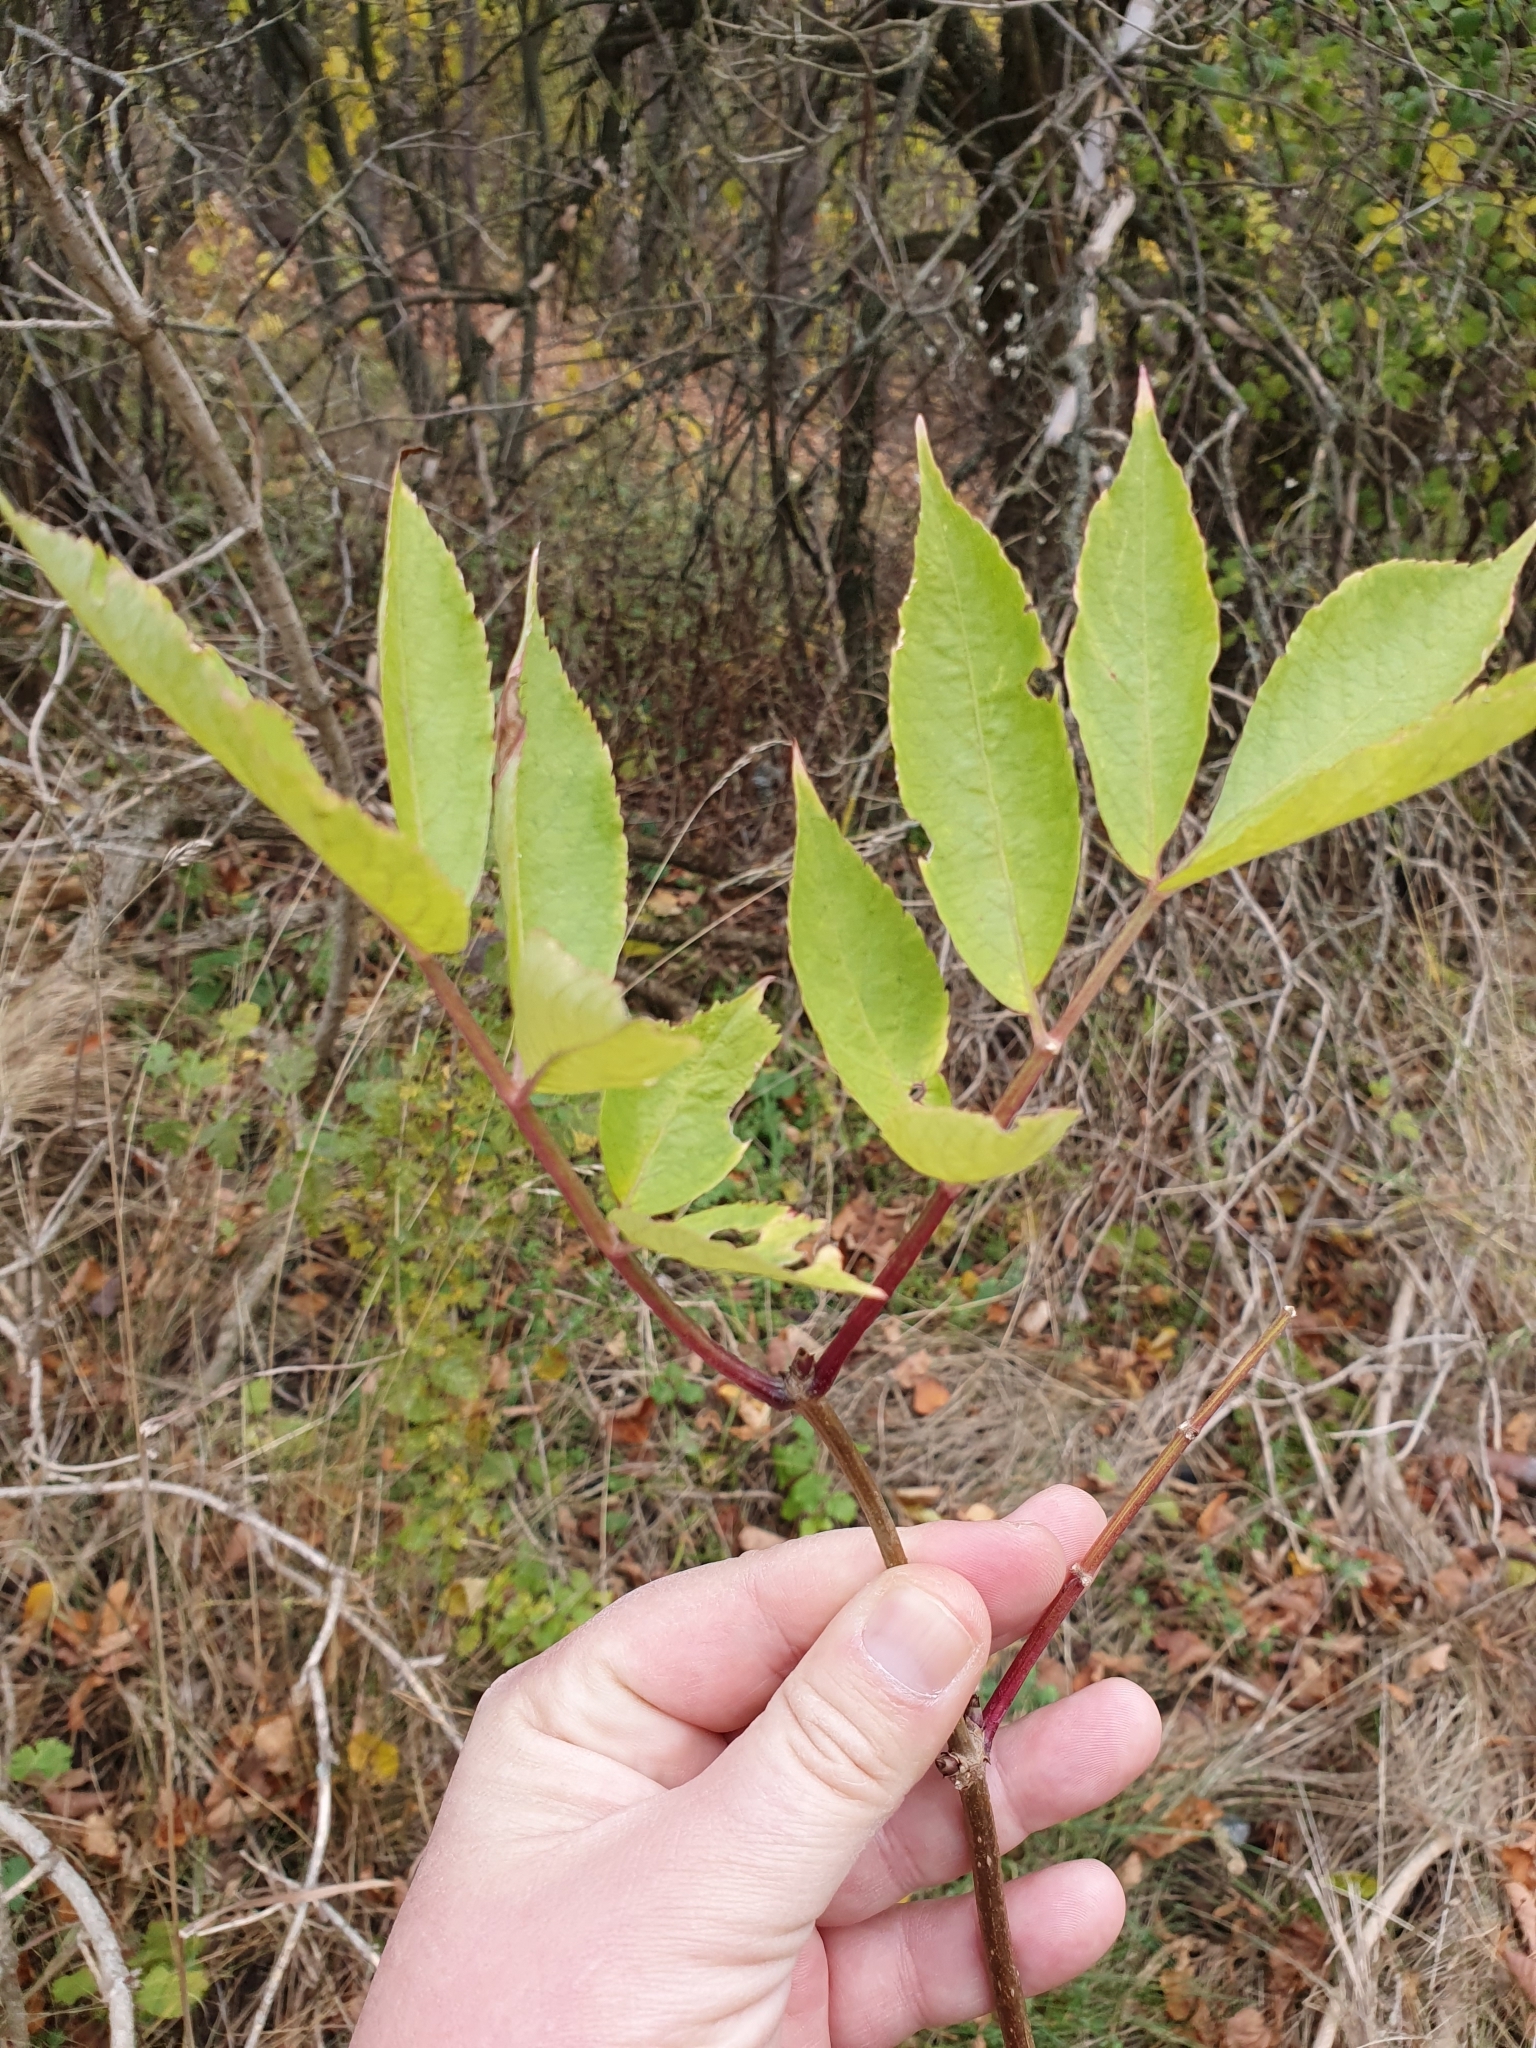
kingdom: Plantae
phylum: Tracheophyta
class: Magnoliopsida
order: Dipsacales
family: Viburnaceae
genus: Sambucus
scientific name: Sambucus nigra
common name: Elder
